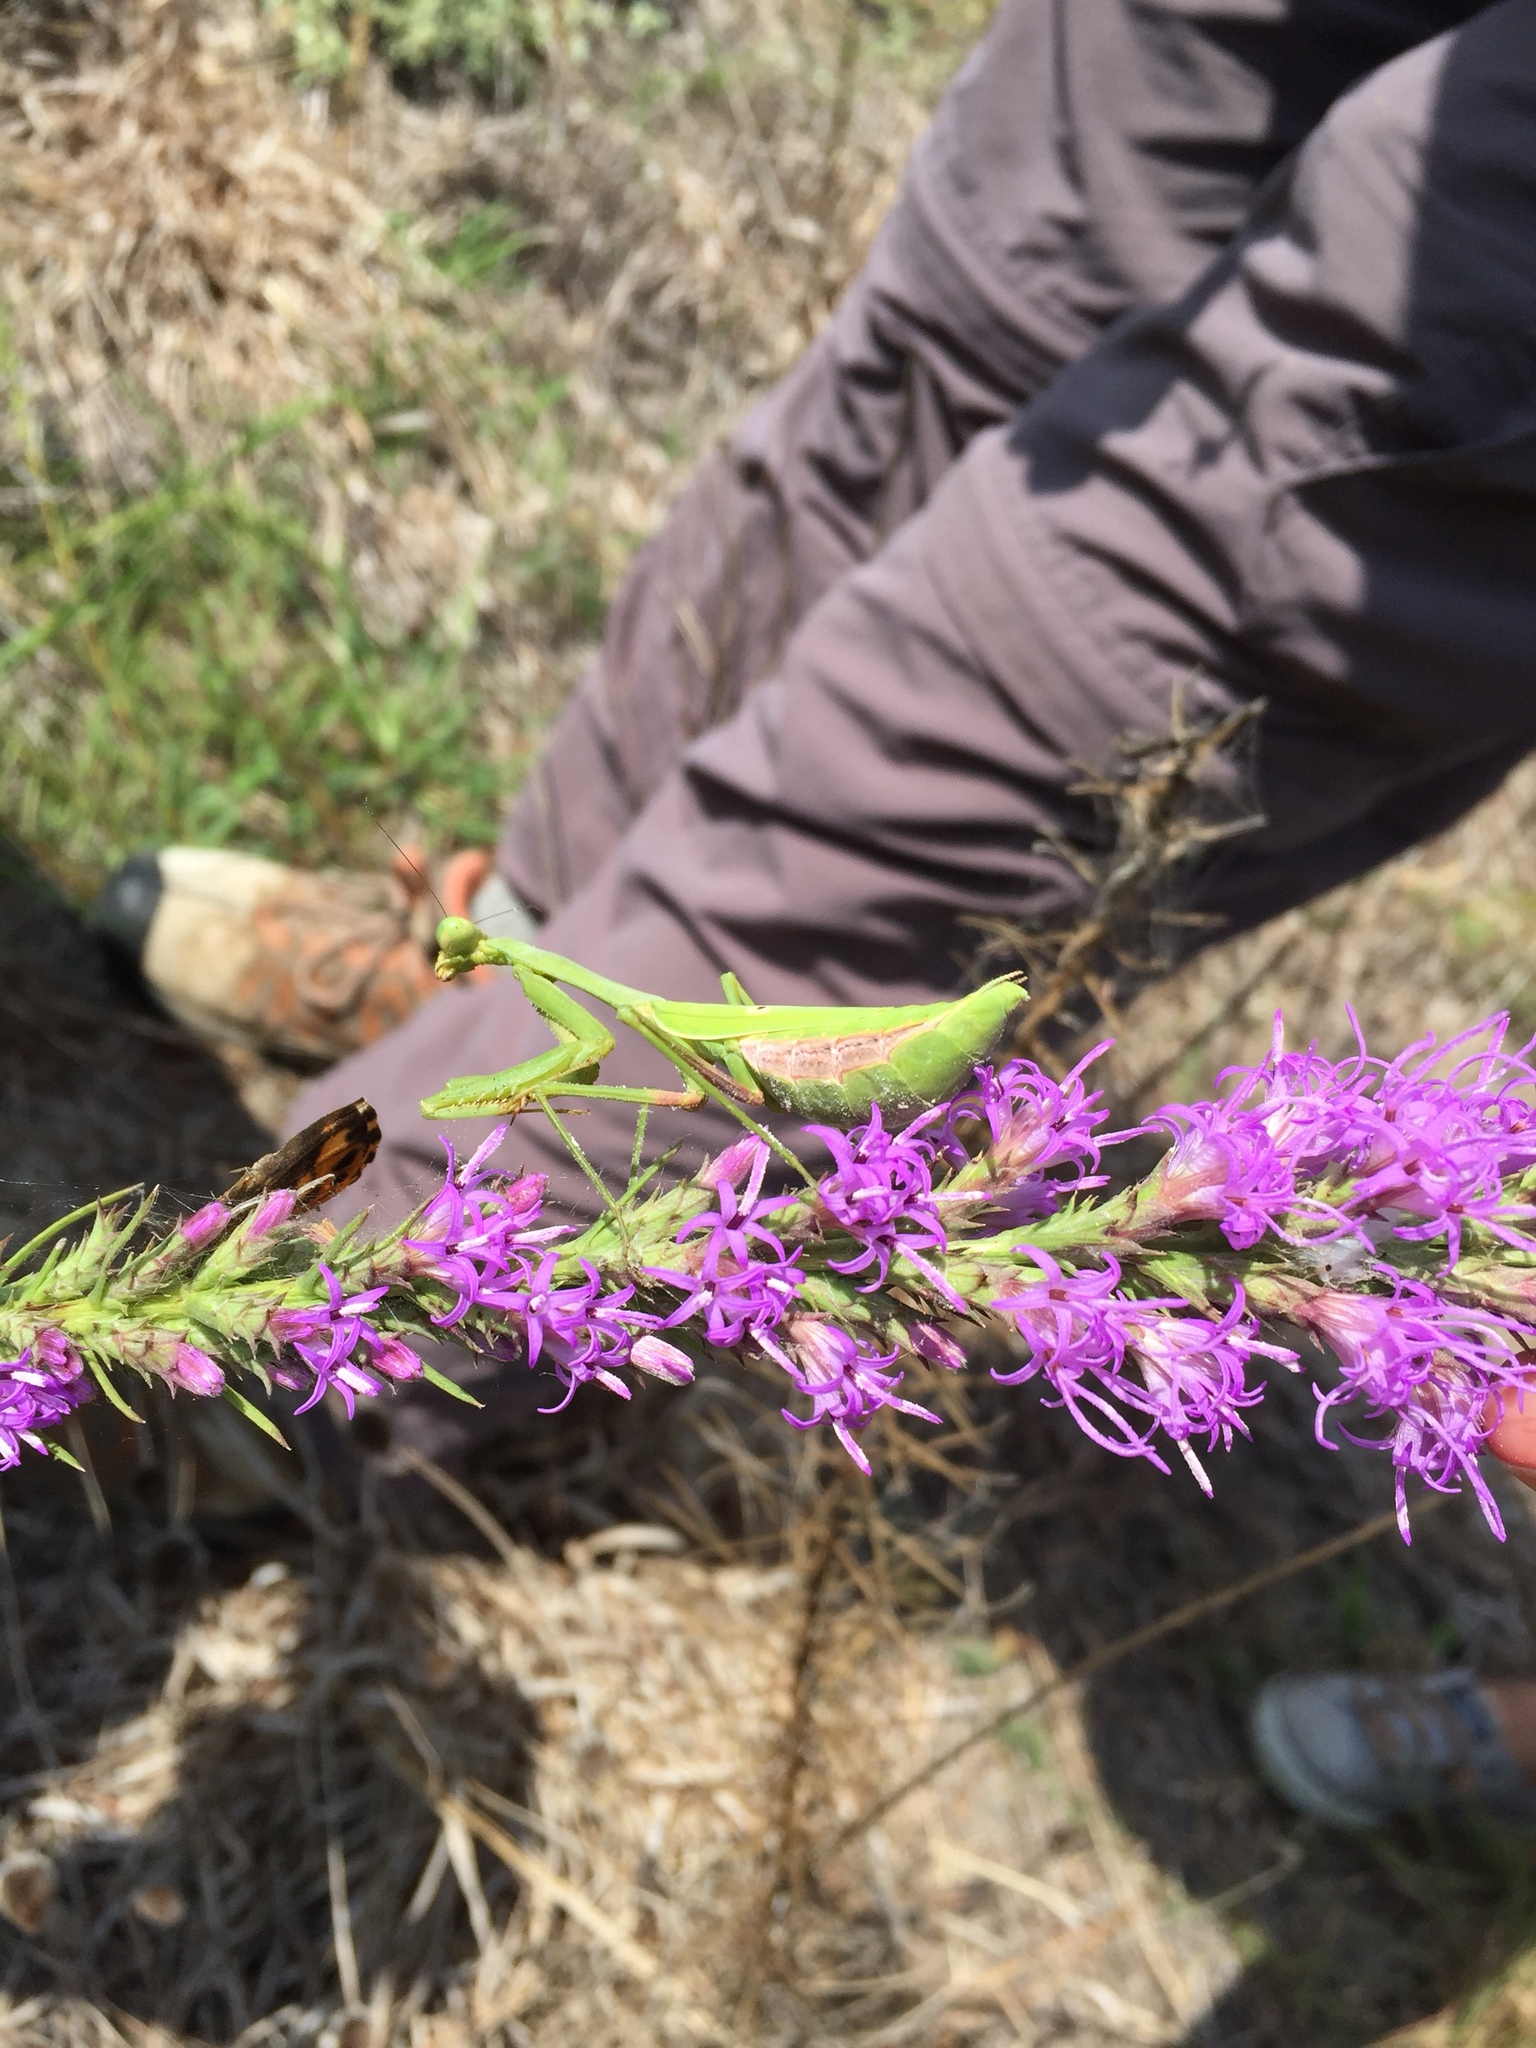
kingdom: Animalia
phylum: Arthropoda
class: Insecta
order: Mantodea
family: Mantidae
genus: Stagmomantis
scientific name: Stagmomantis carolina
